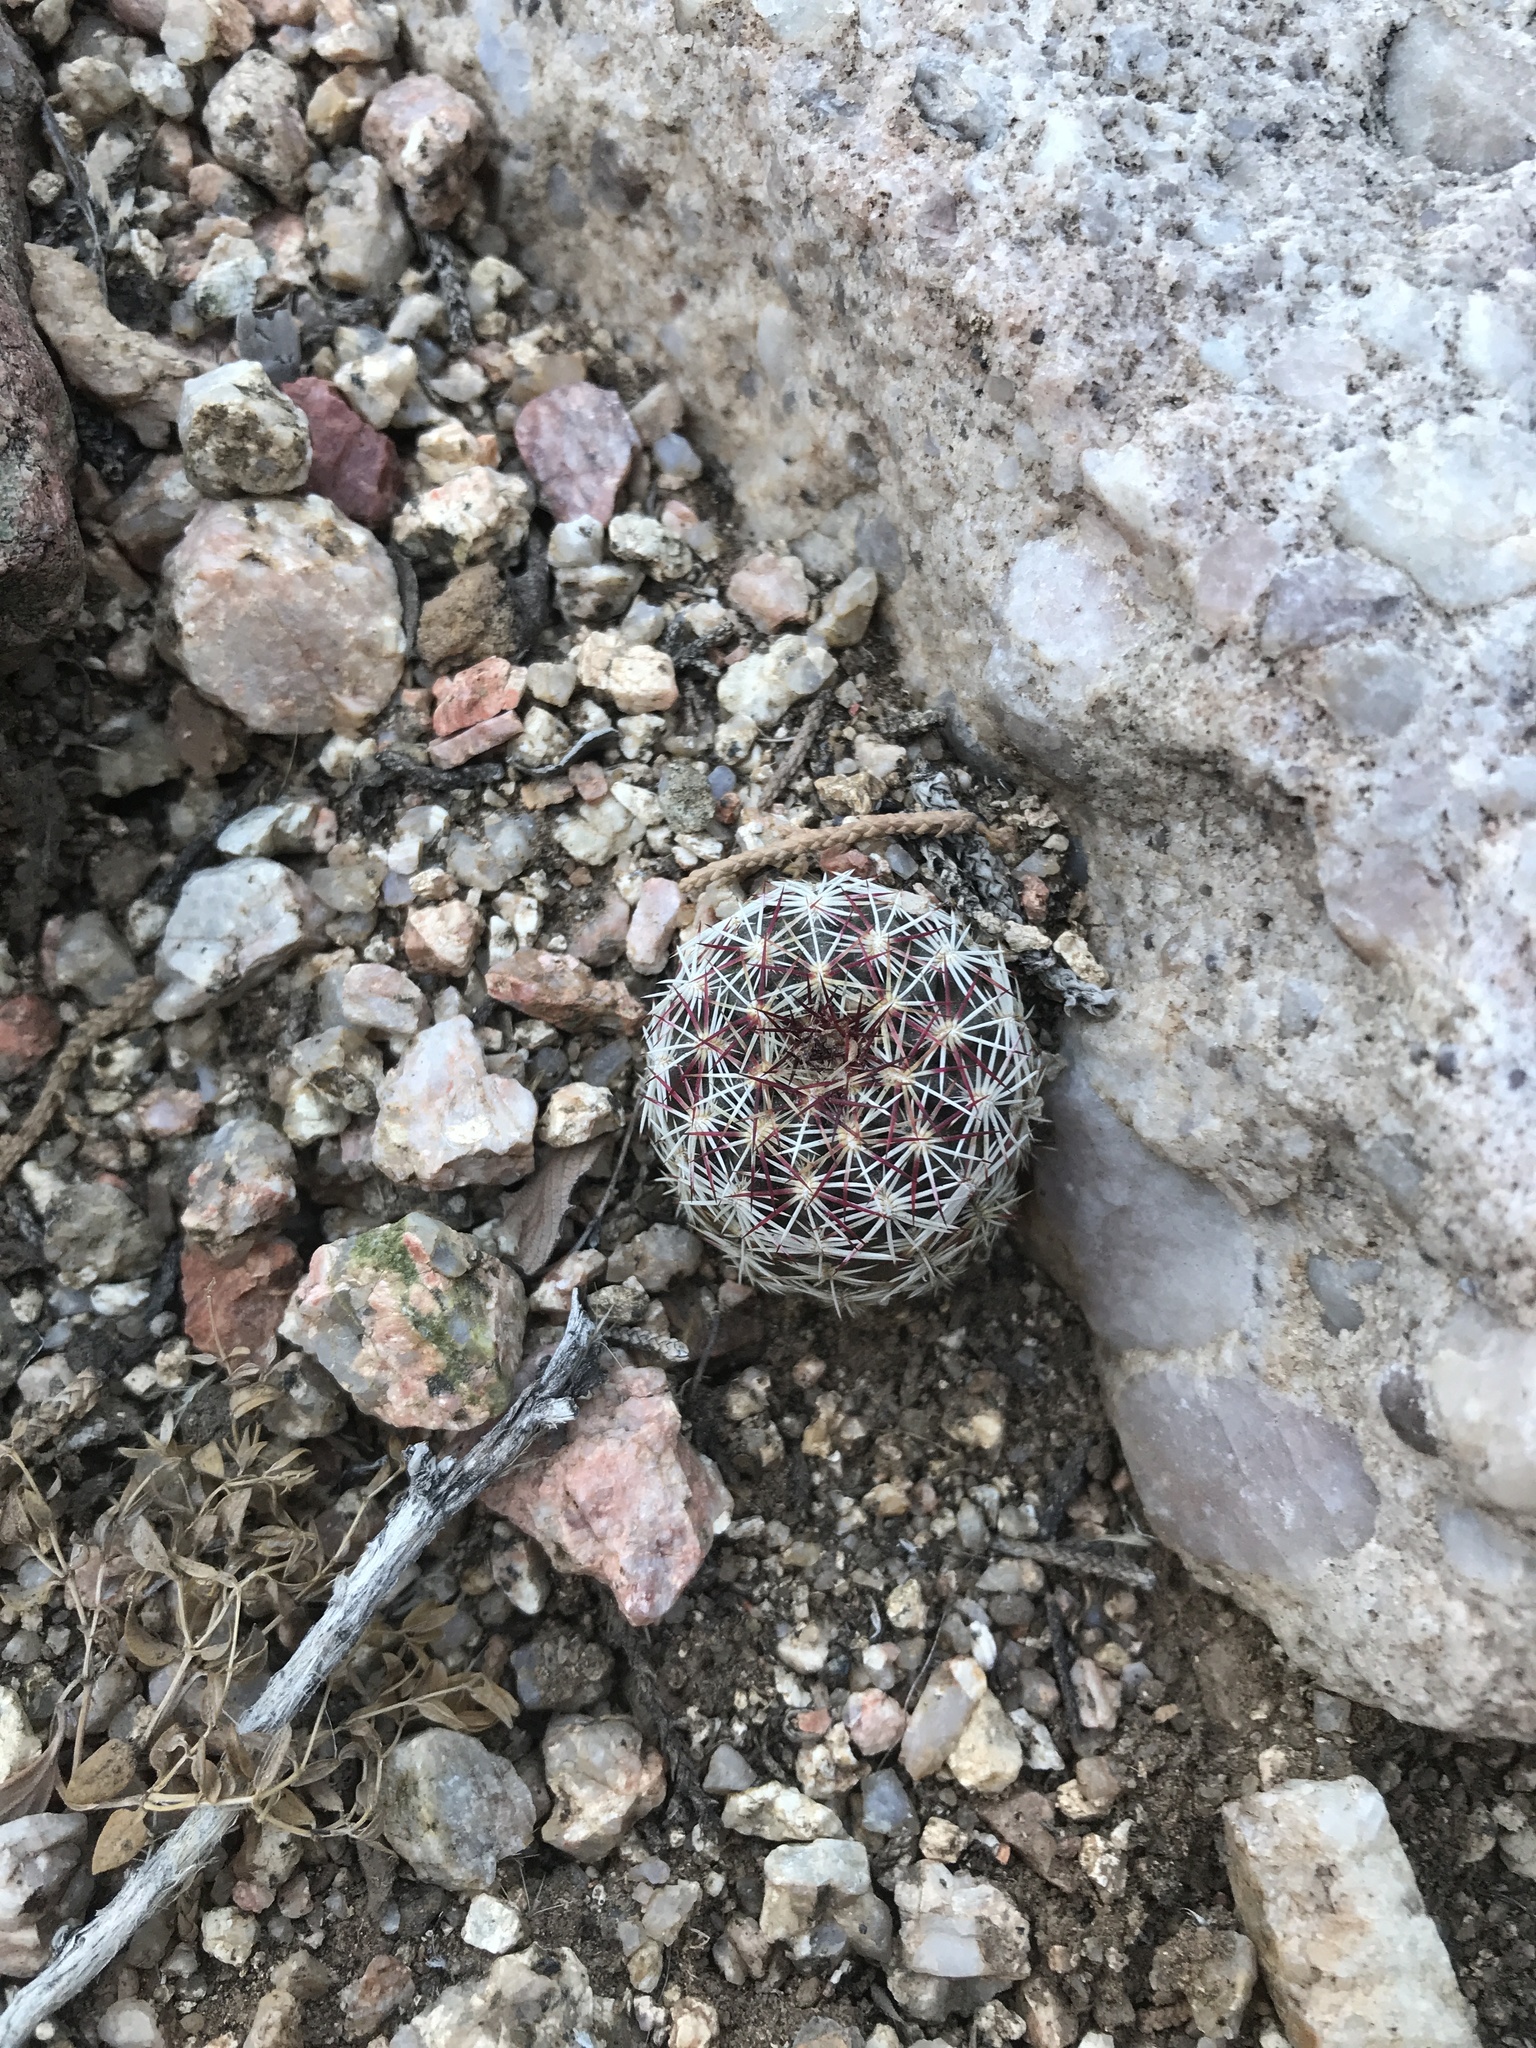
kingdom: Plantae
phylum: Tracheophyta
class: Magnoliopsida
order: Caryophyllales
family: Cactaceae
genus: Echinocereus
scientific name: Echinocereus viridiflorus
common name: Nylon hedgehog cactus
